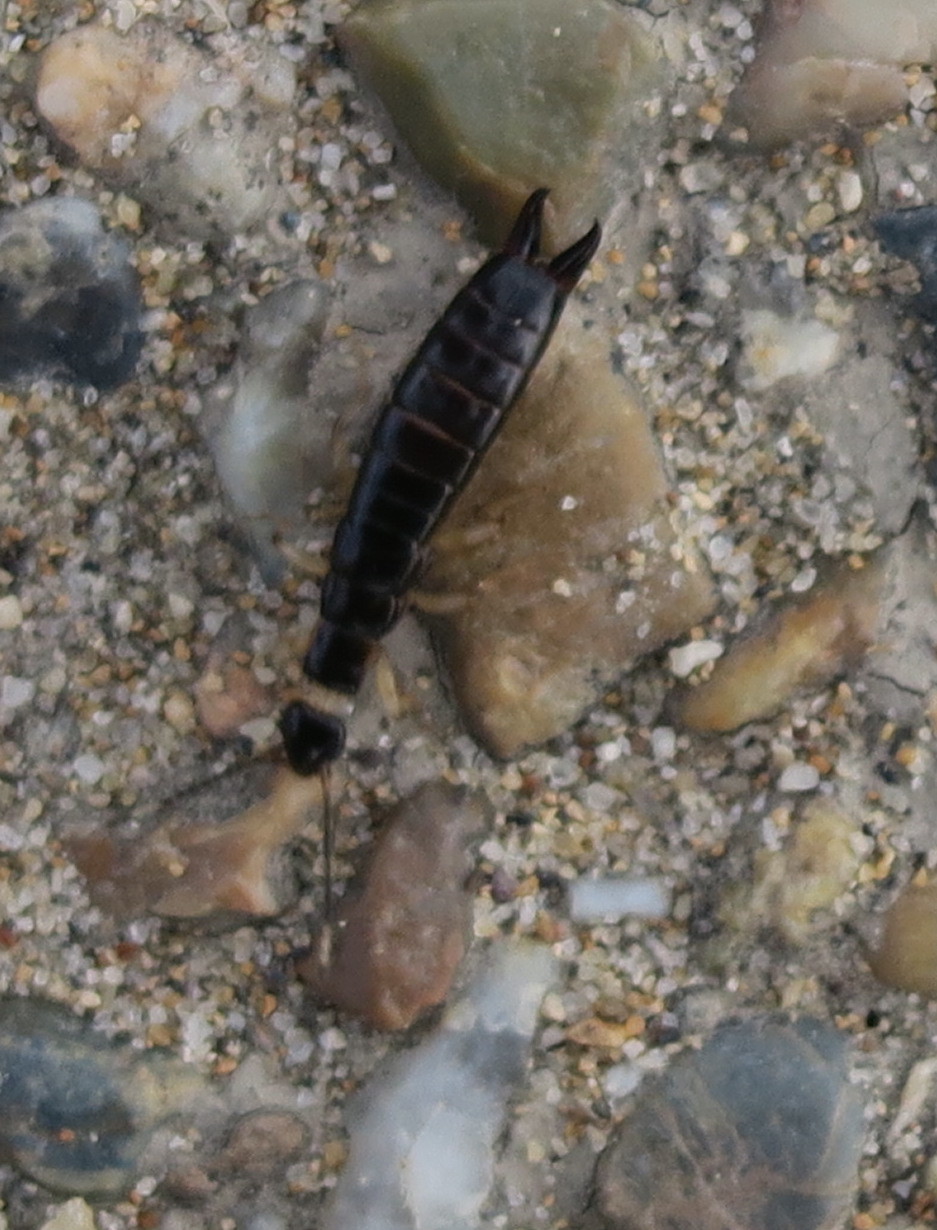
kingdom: Animalia
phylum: Arthropoda
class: Insecta
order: Dermaptera
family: Anisolabididae
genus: Anisolabella
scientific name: Anisolabella marginalis
